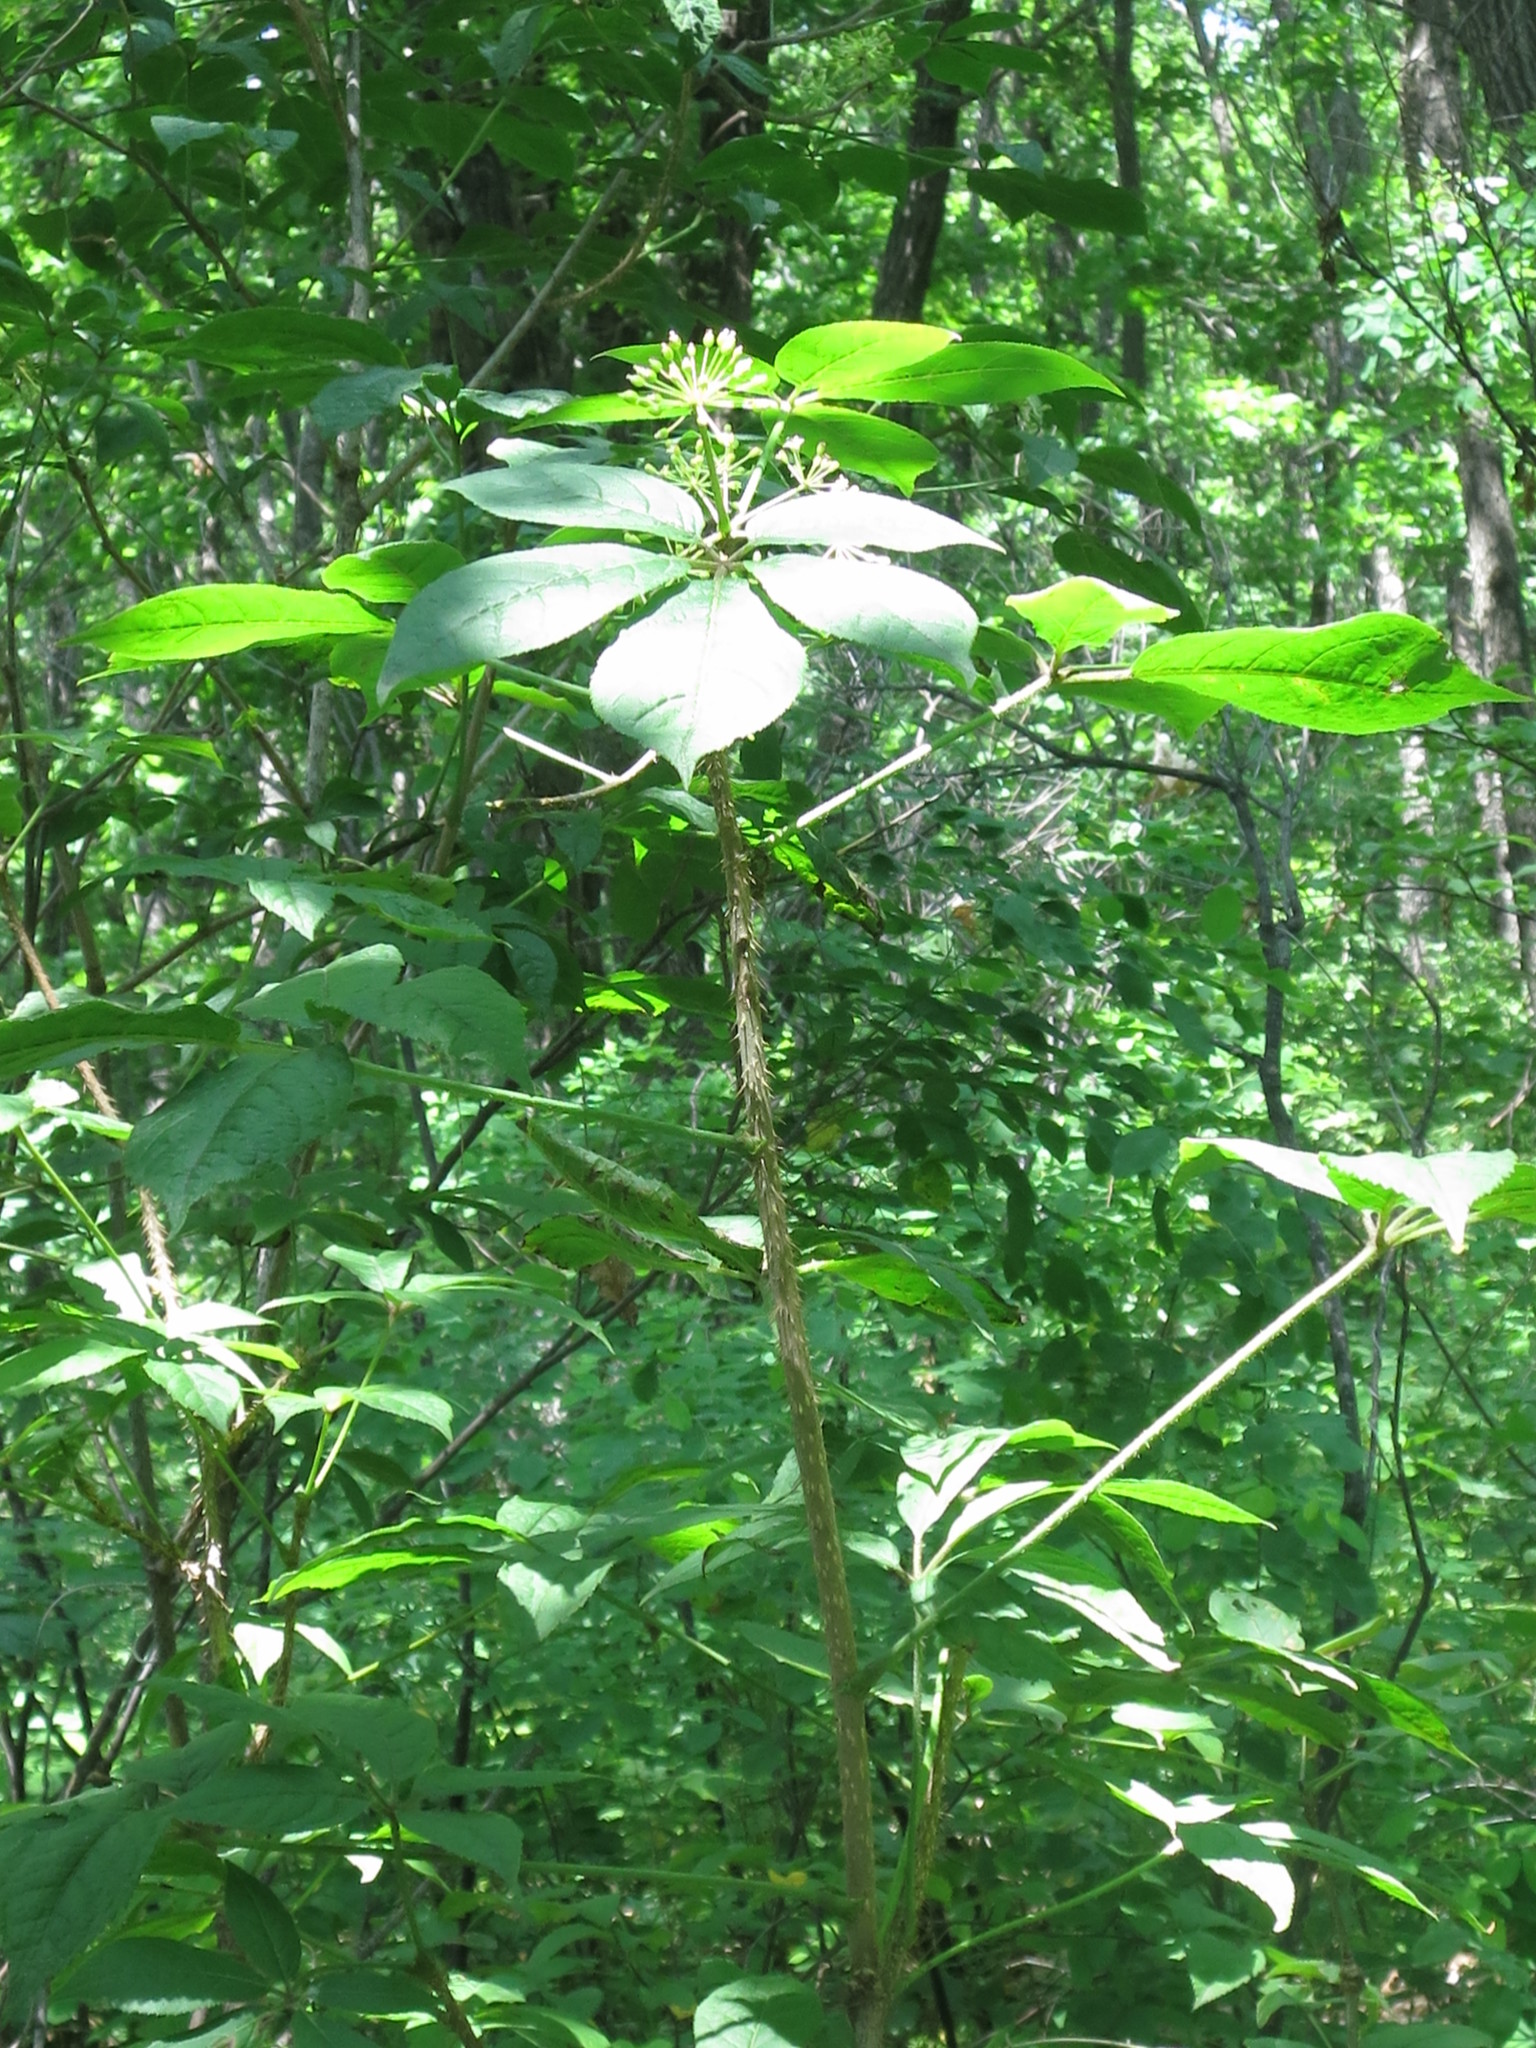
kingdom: Plantae
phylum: Tracheophyta
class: Magnoliopsida
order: Apiales
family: Araliaceae
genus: Eleutherococcus
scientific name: Eleutherococcus senticosus
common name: Siberian-ginseng
